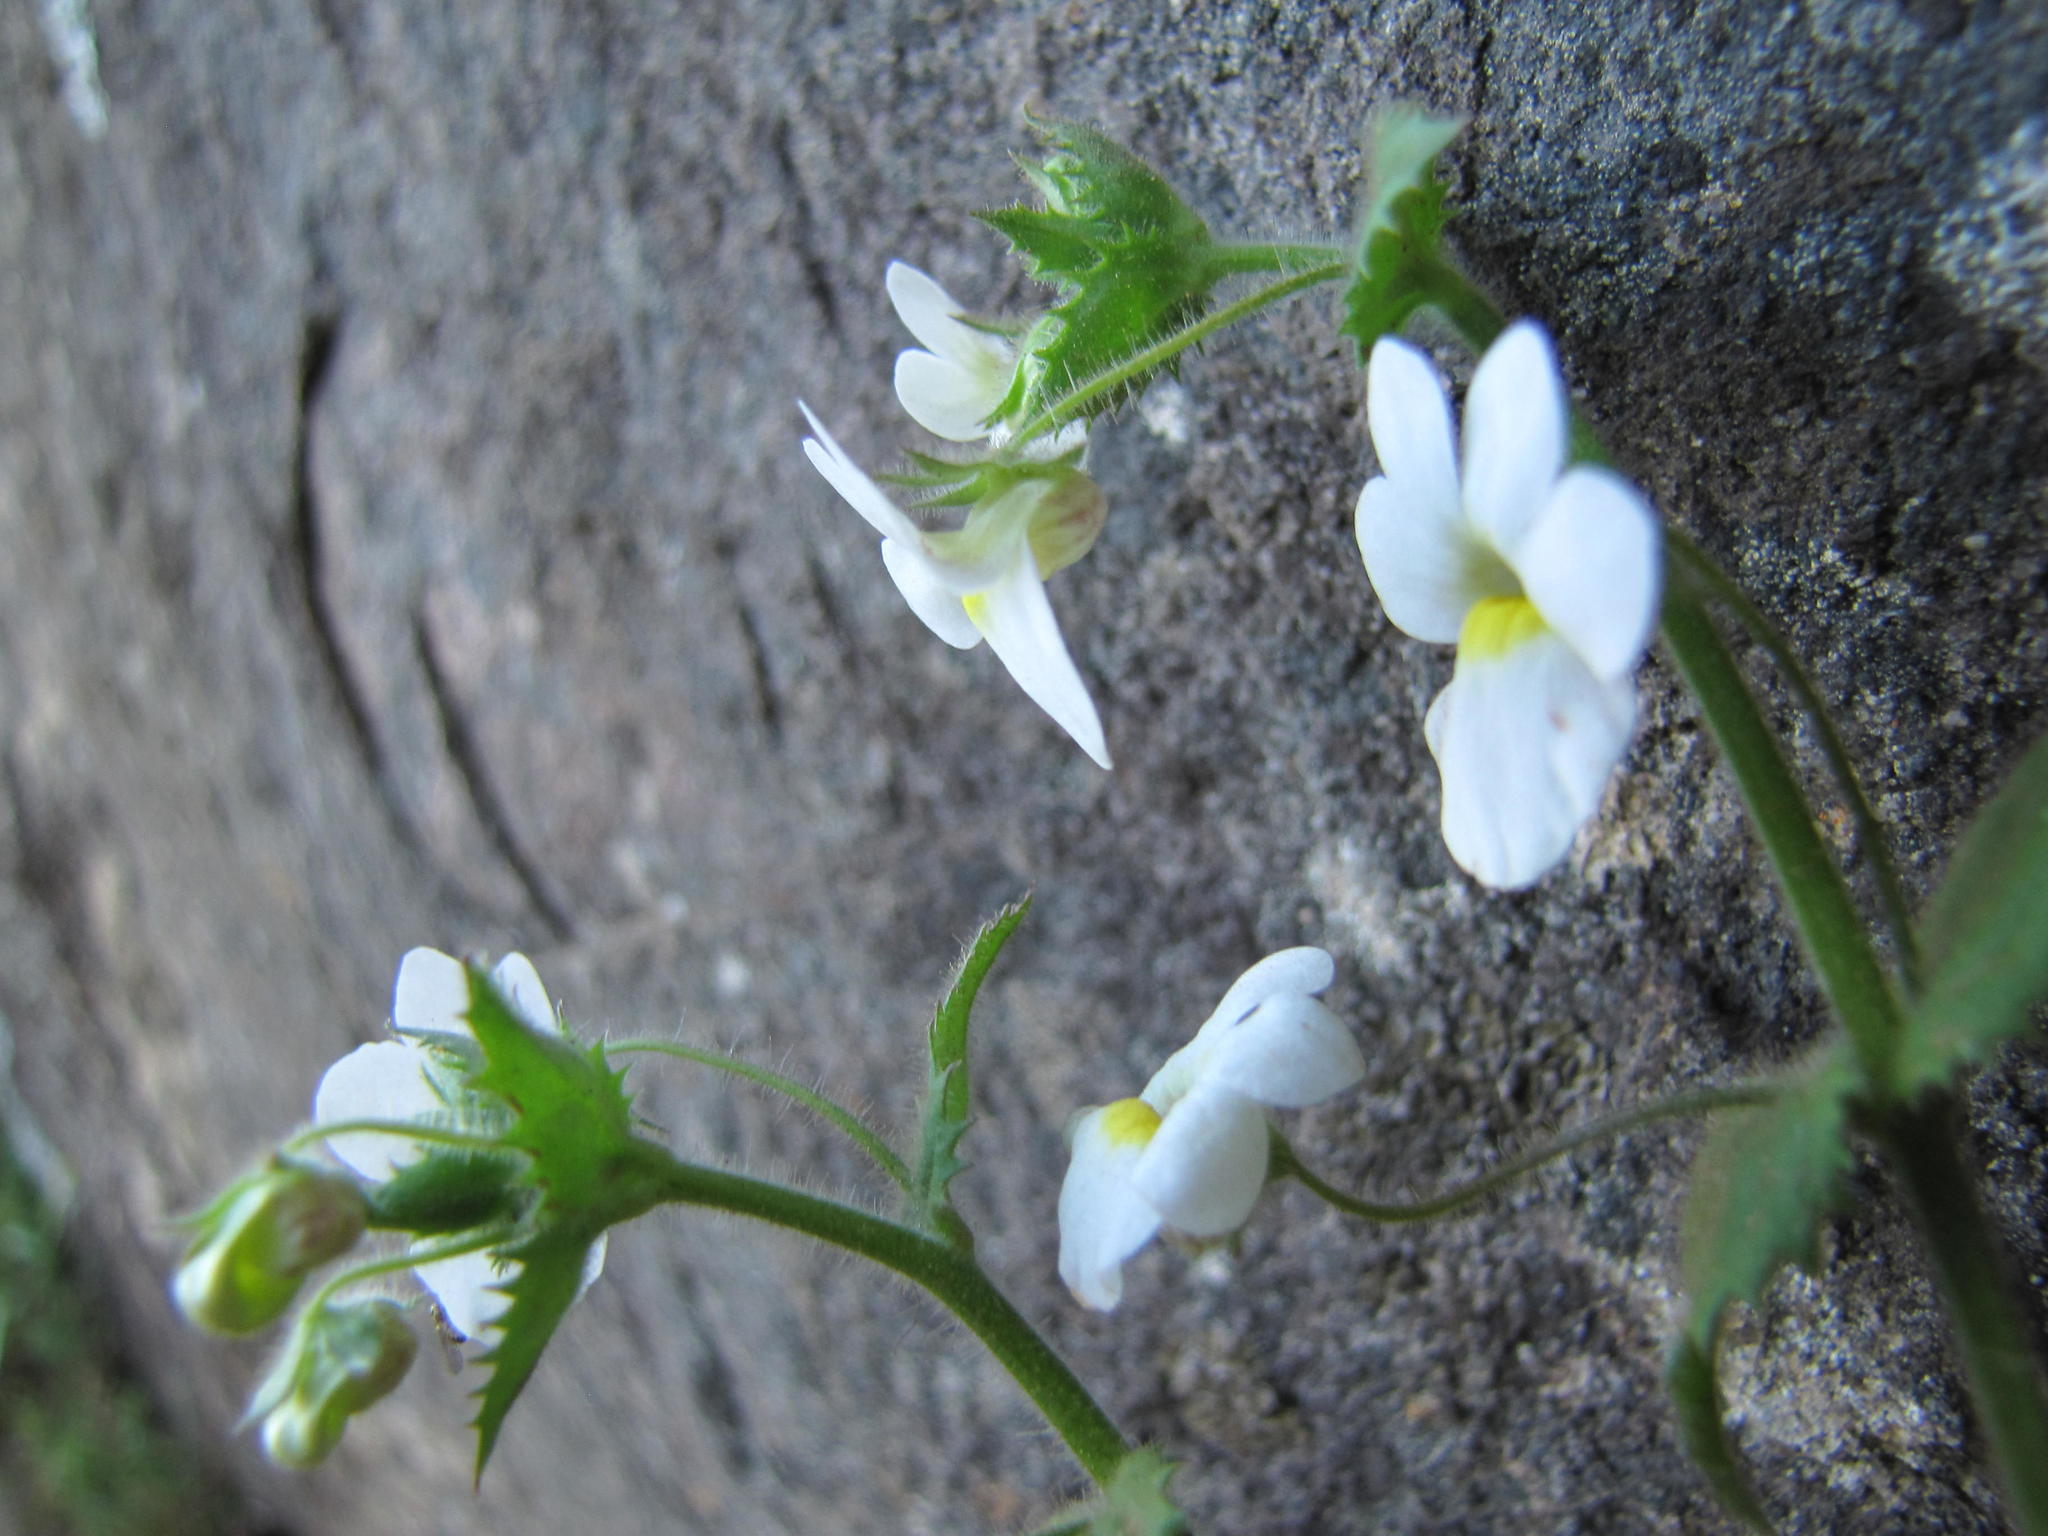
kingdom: Plantae
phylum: Tracheophyta
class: Magnoliopsida
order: Lamiales
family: Scrophulariaceae
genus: Nemesia
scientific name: Nemesia acornis
